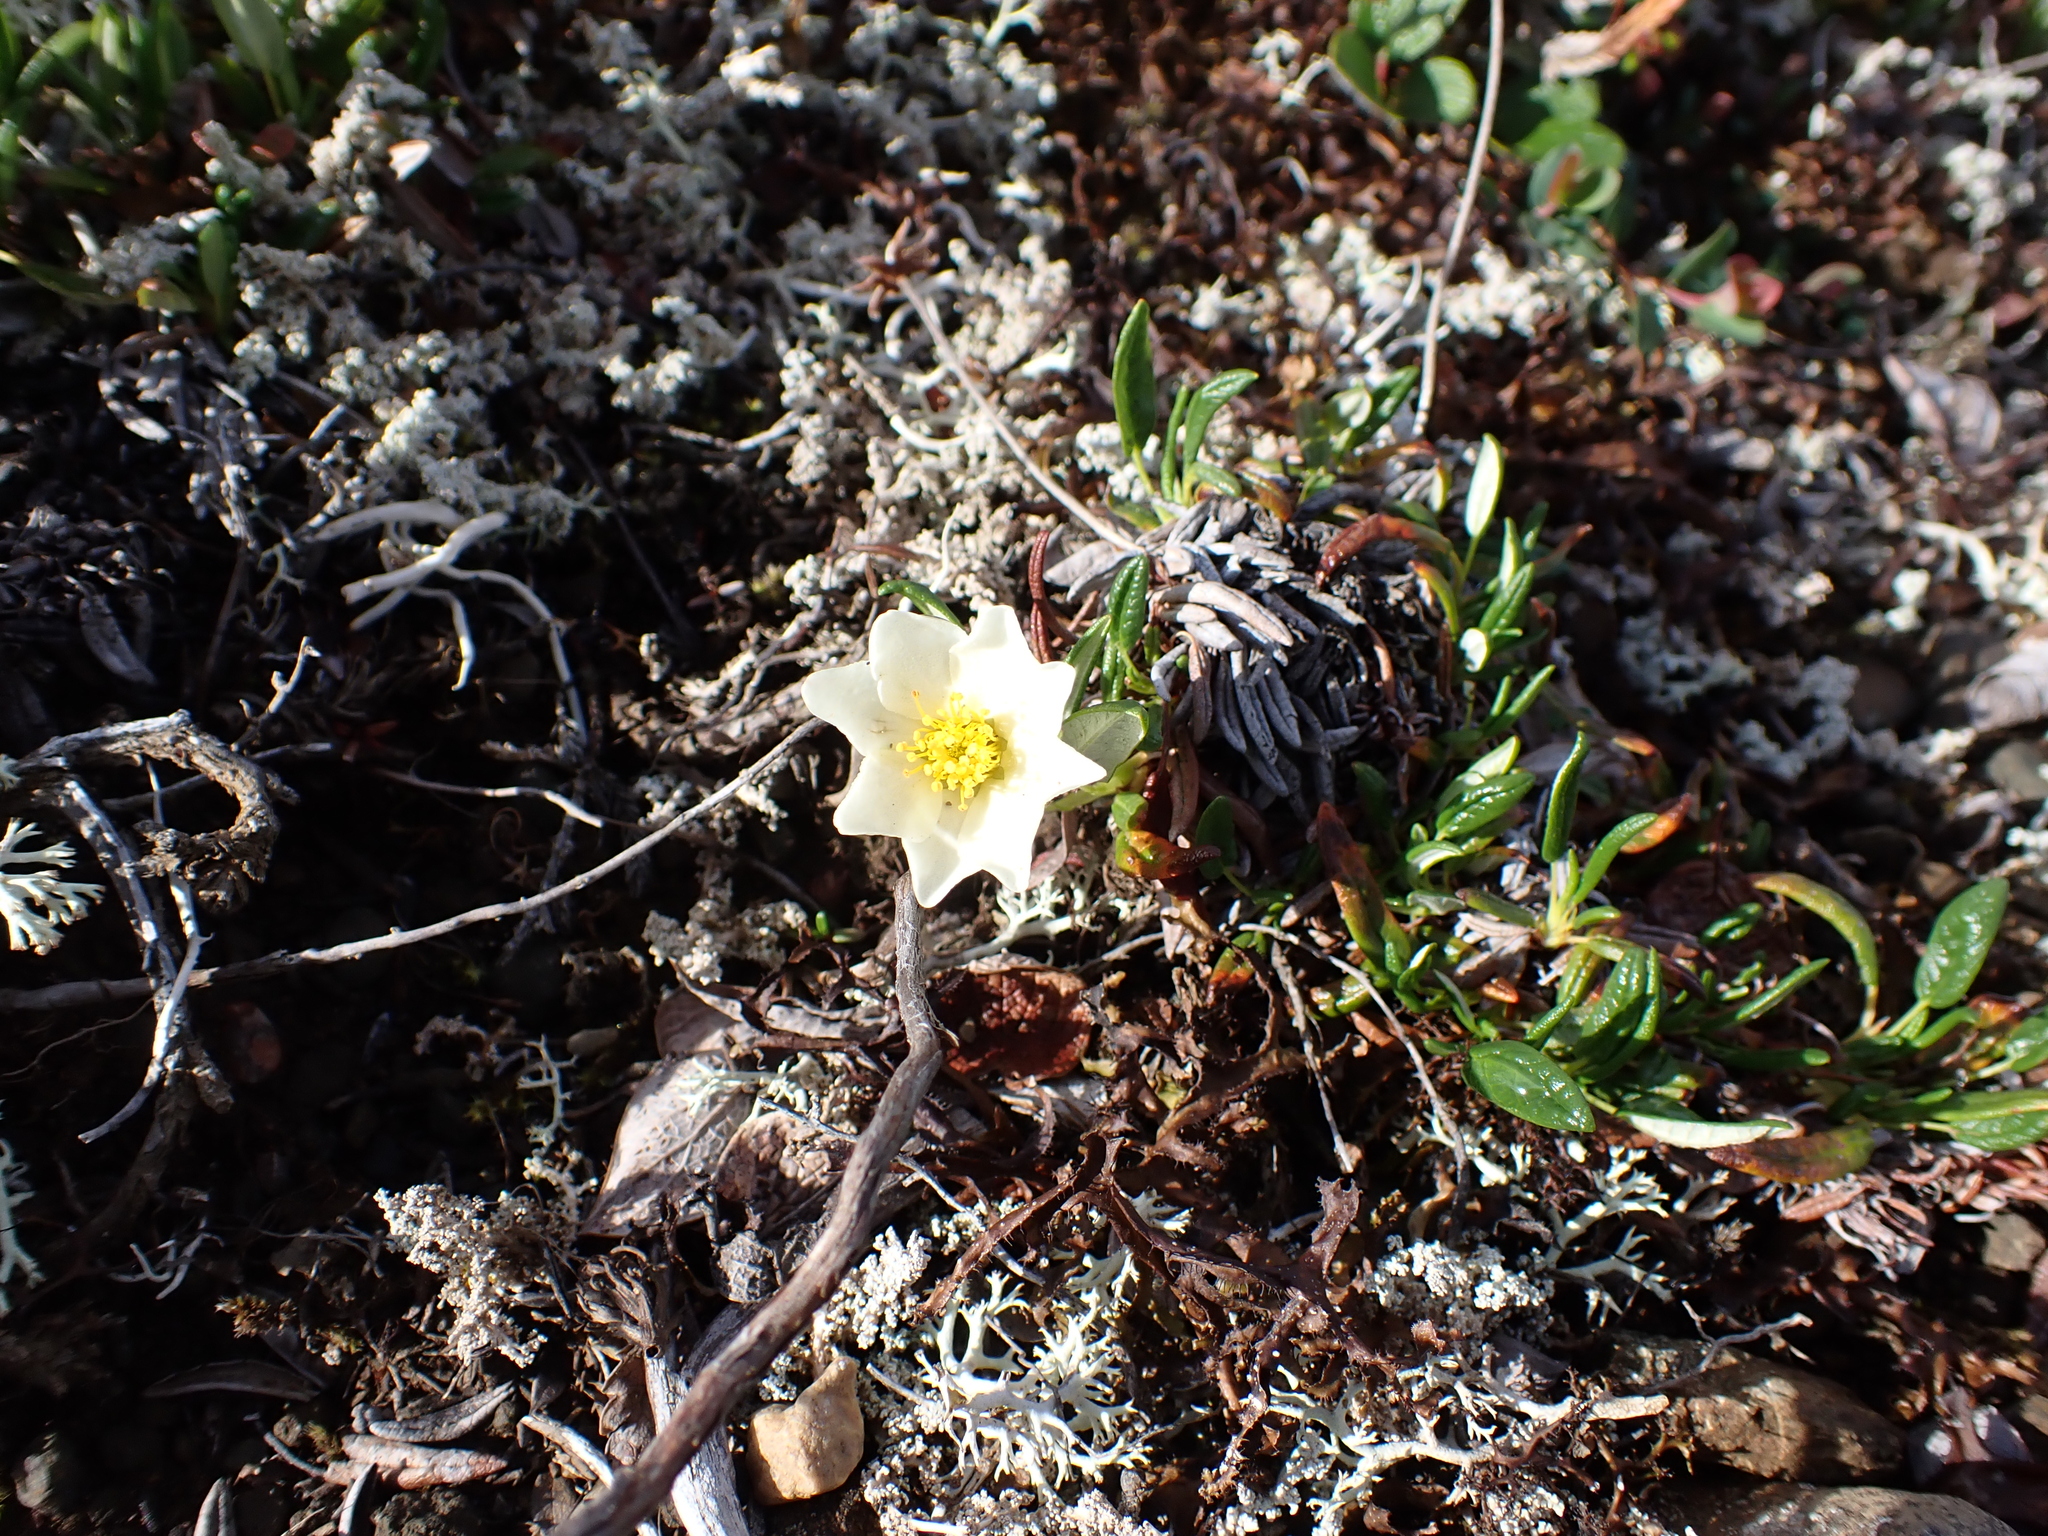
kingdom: Plantae
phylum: Tracheophyta
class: Magnoliopsida
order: Rosales
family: Rosaceae
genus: Dryas
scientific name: Dryas integrifolia
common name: Entire-leaved mountain avens
